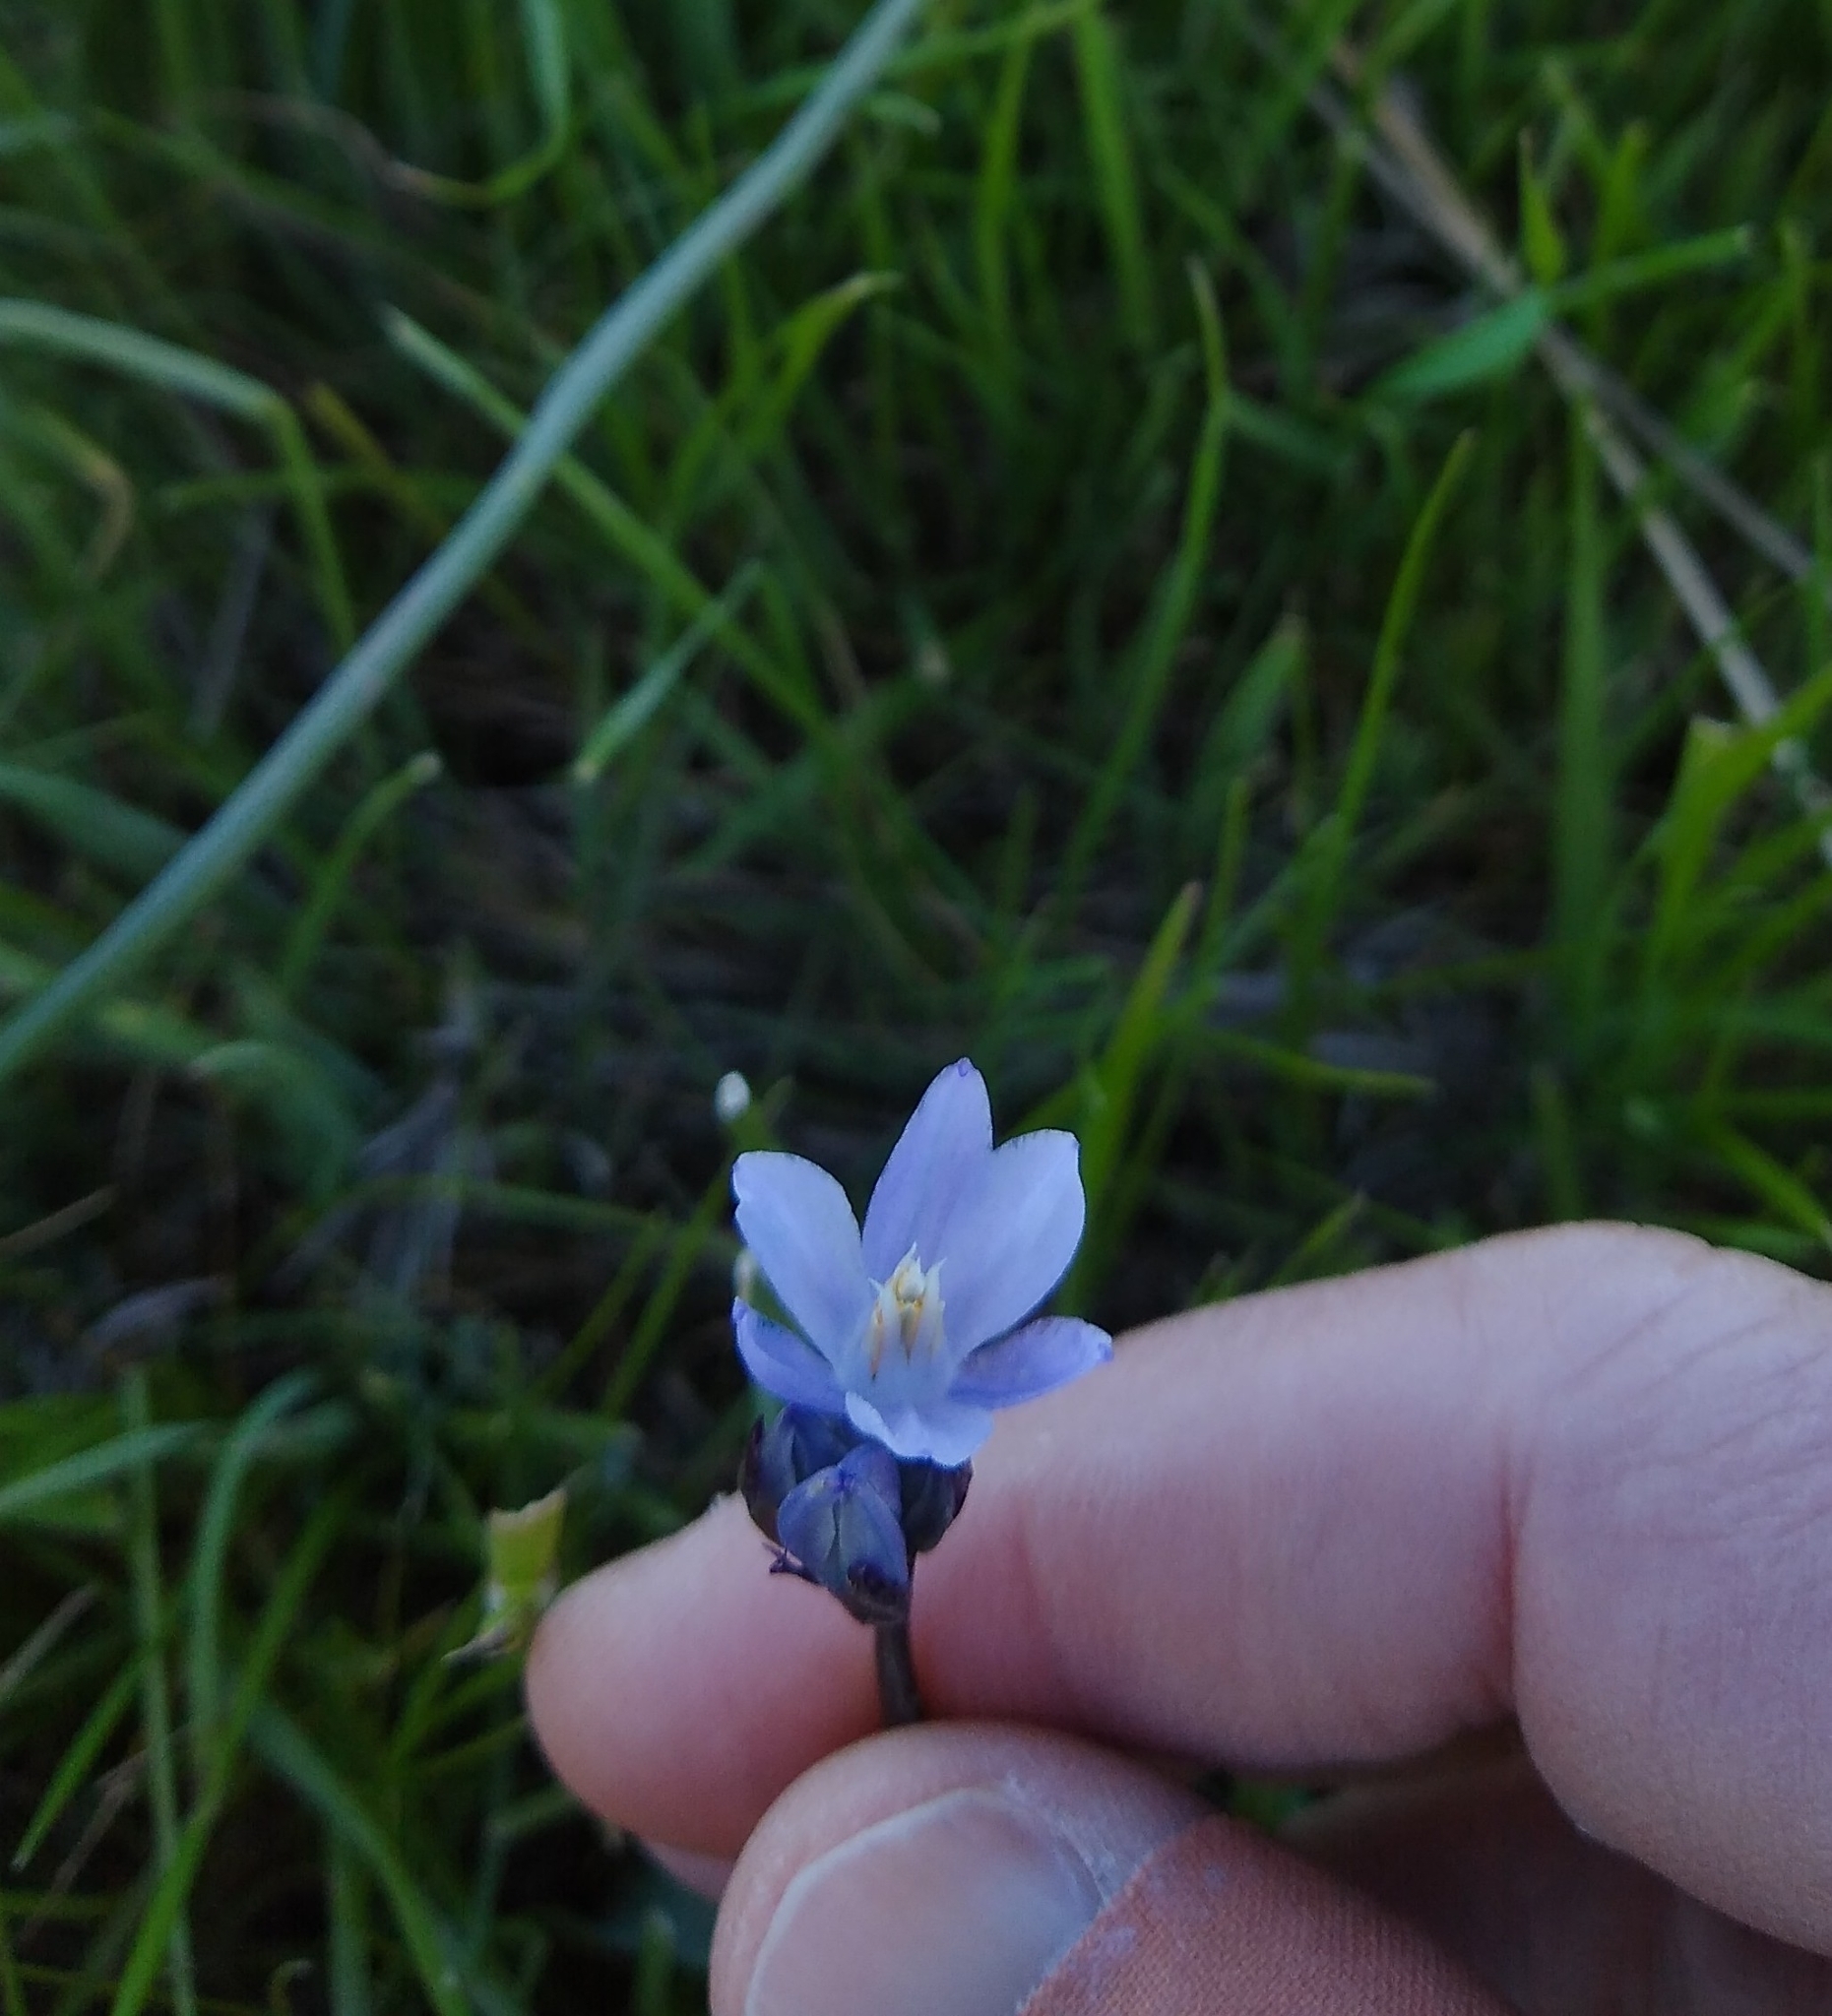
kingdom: Plantae
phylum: Tracheophyta
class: Liliopsida
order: Asparagales
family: Asparagaceae
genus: Dipterostemon
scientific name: Dipterostemon capitatus
